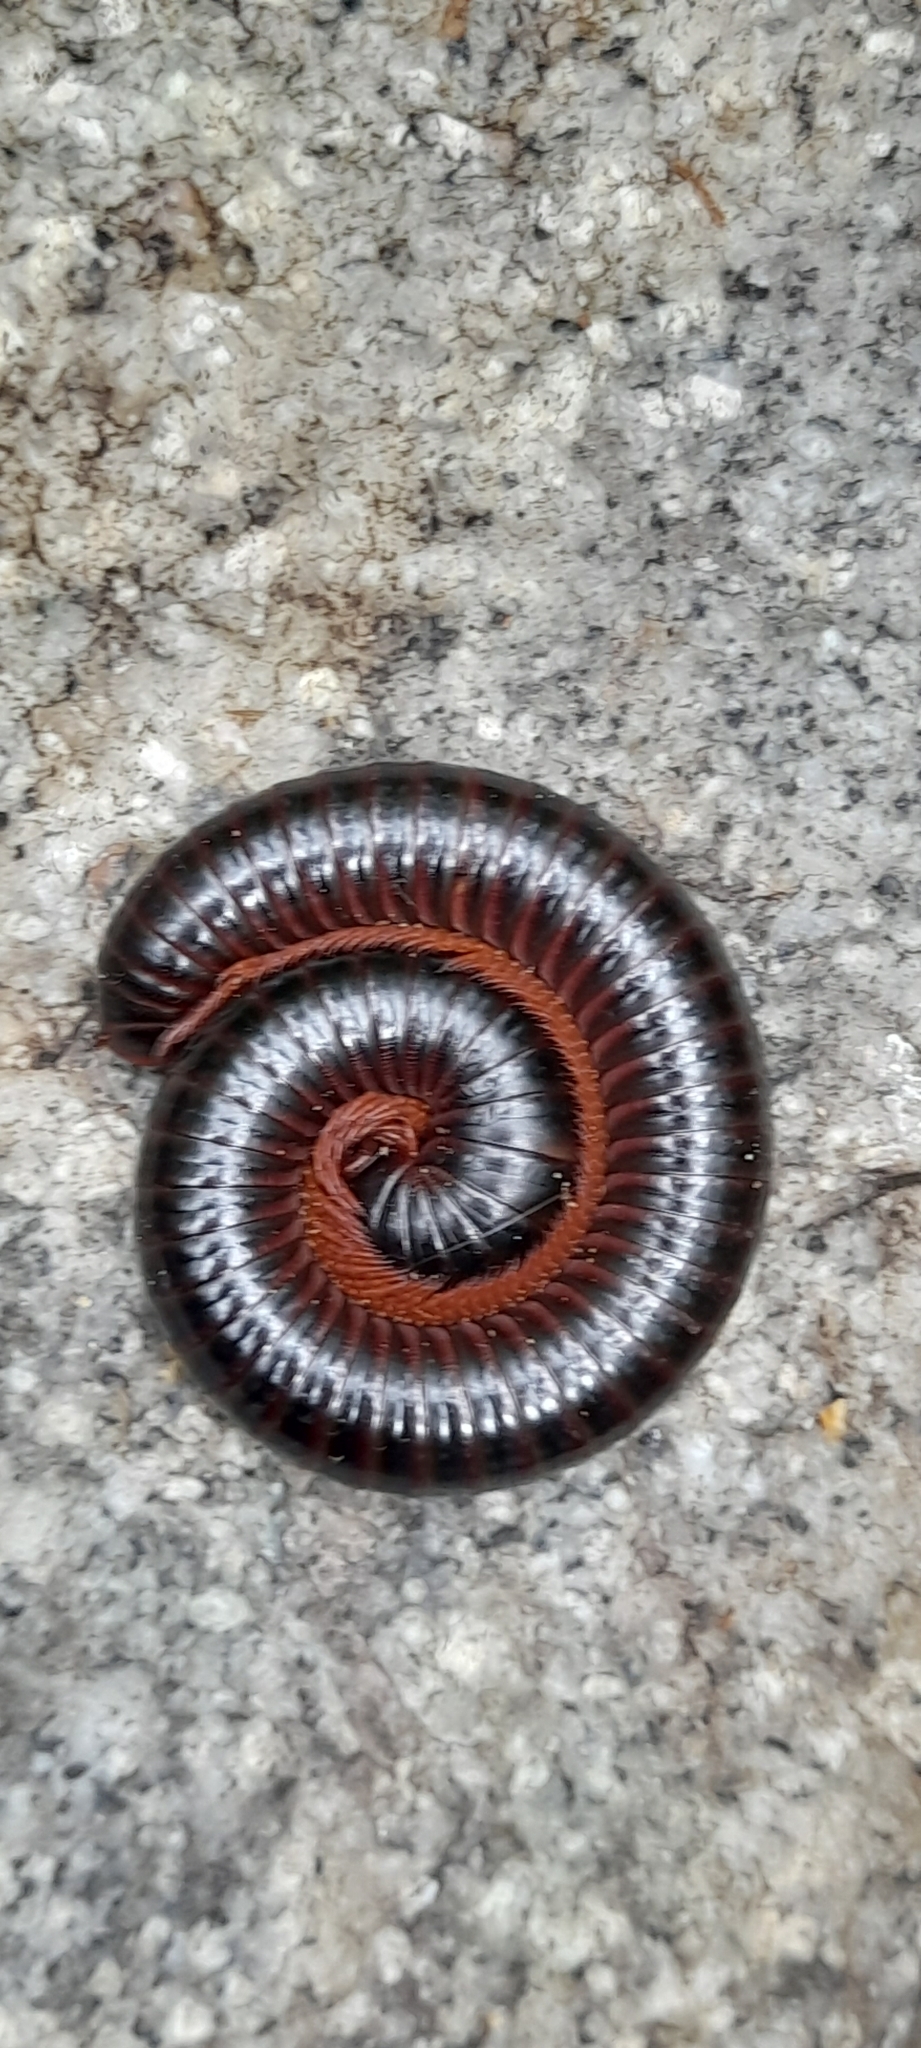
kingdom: Animalia
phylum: Arthropoda
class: Diplopoda
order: Spirobolida
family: Pachybolidae
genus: Xenobolus
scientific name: Xenobolus carnifex
